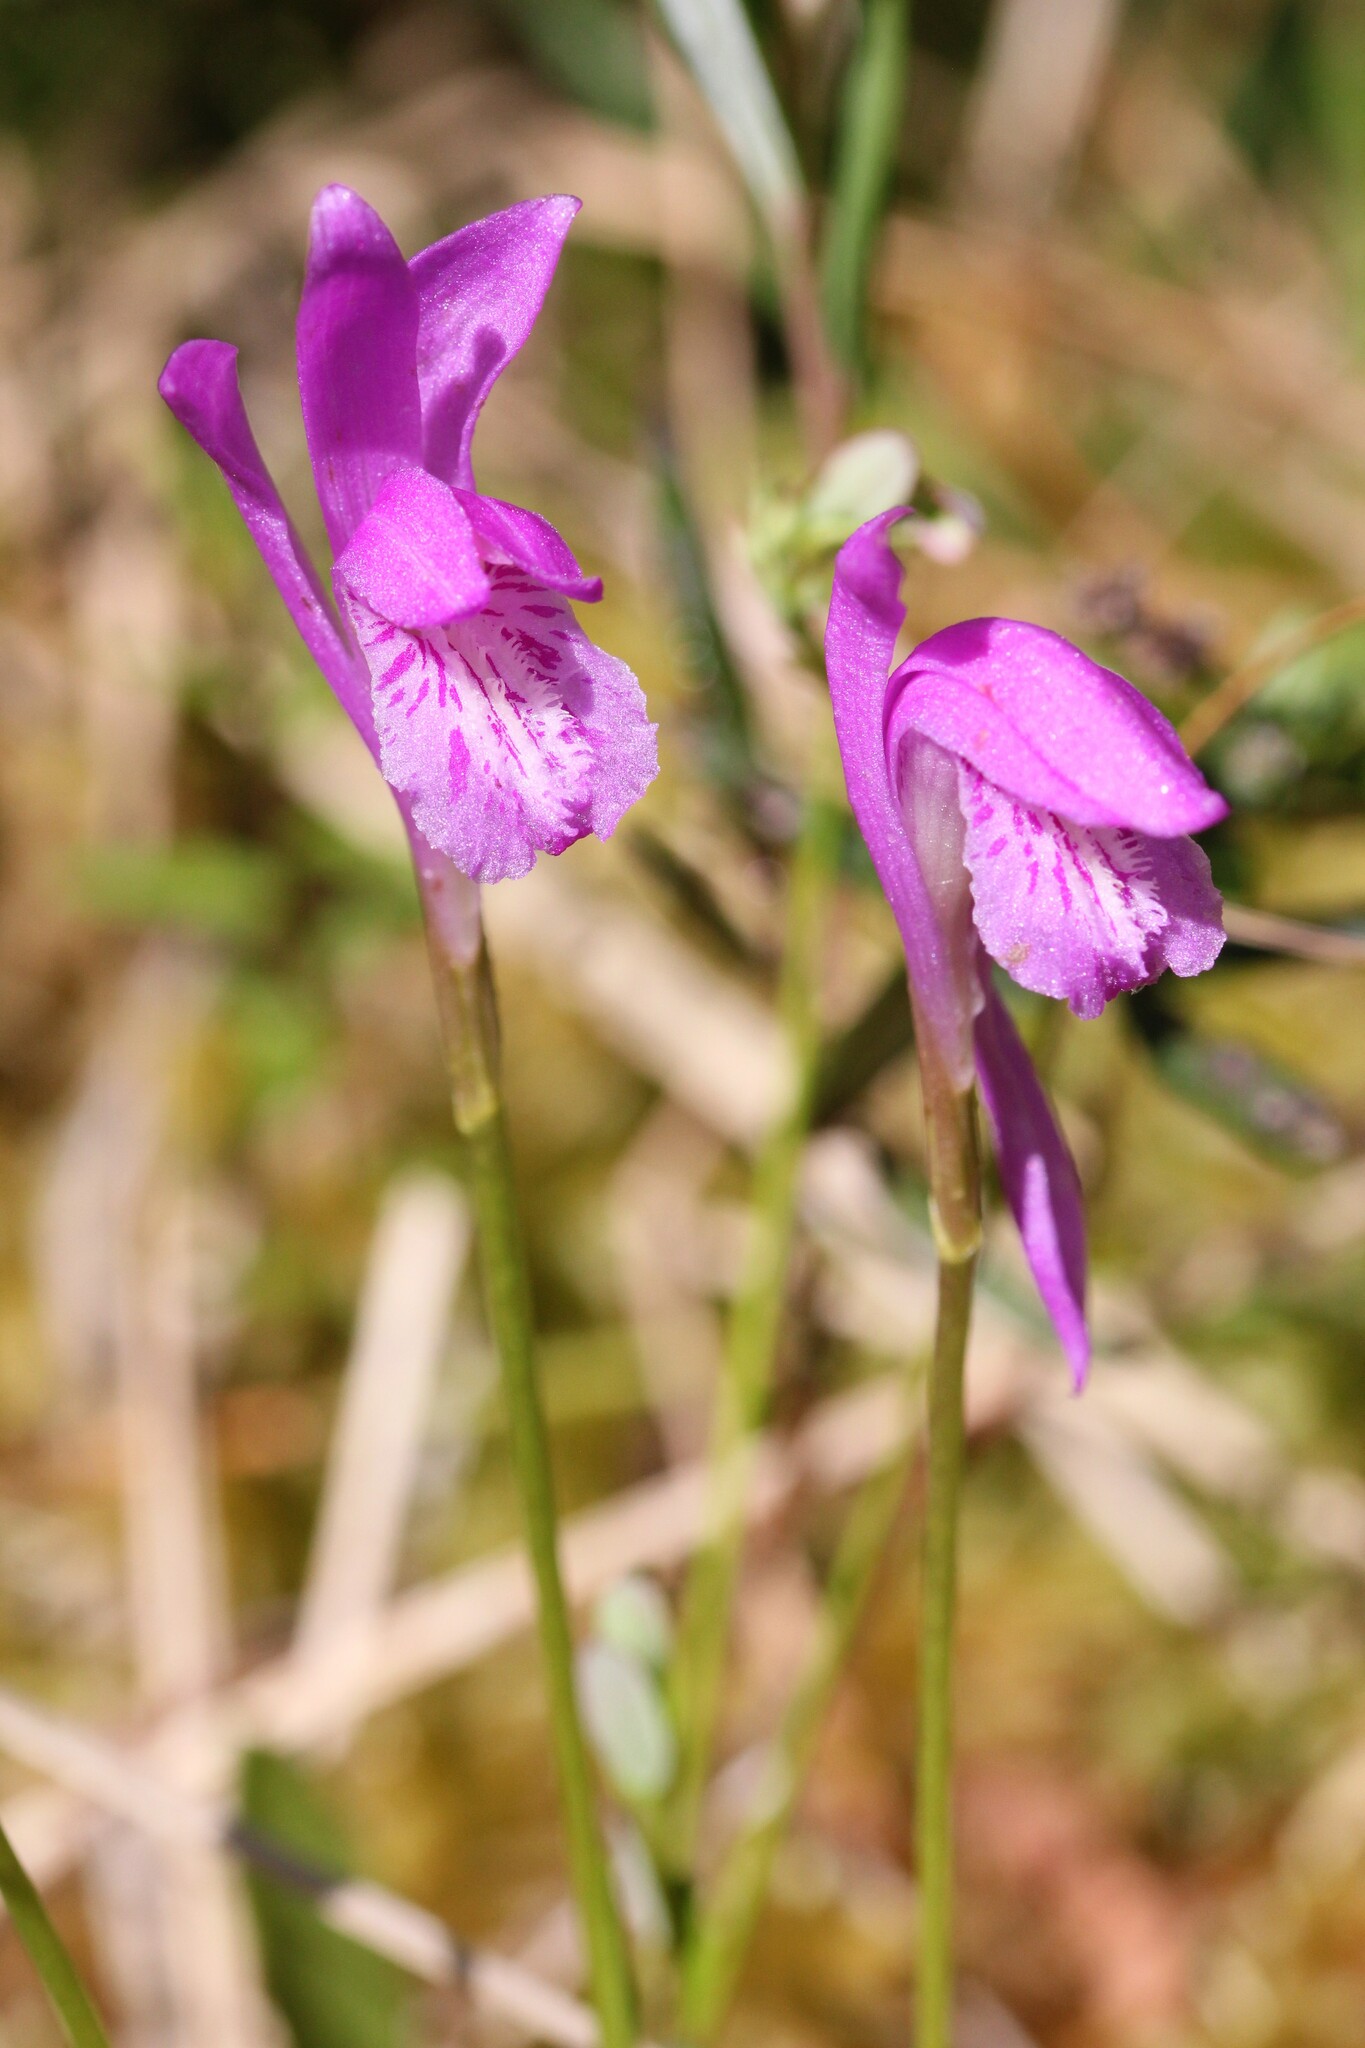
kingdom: Plantae
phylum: Tracheophyta
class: Liliopsida
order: Asparagales
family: Orchidaceae
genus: Arethusa
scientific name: Arethusa bulbosa
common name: Arethusa
